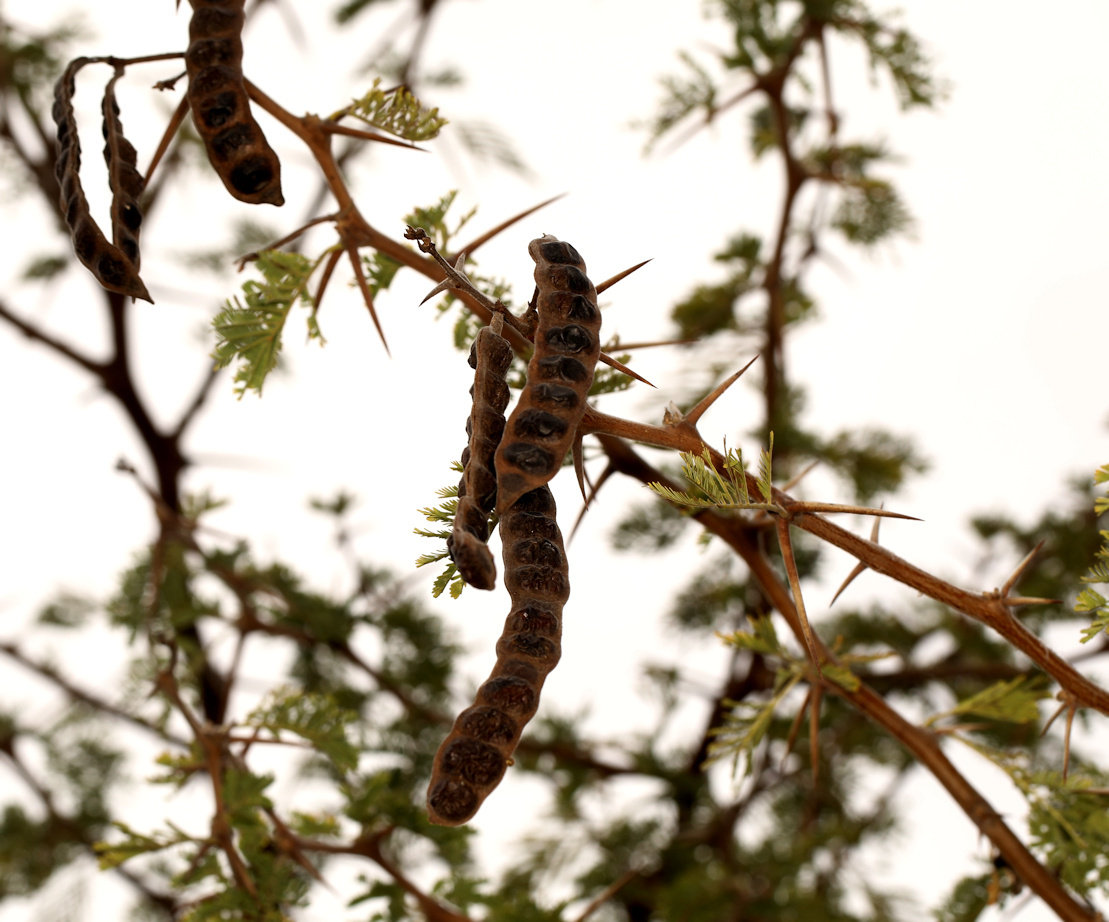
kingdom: Plantae
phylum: Tracheophyta
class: Magnoliopsida
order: Fabales
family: Fabaceae
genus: Vachellia
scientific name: Vachellia nilotica
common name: Arabic gumtree
